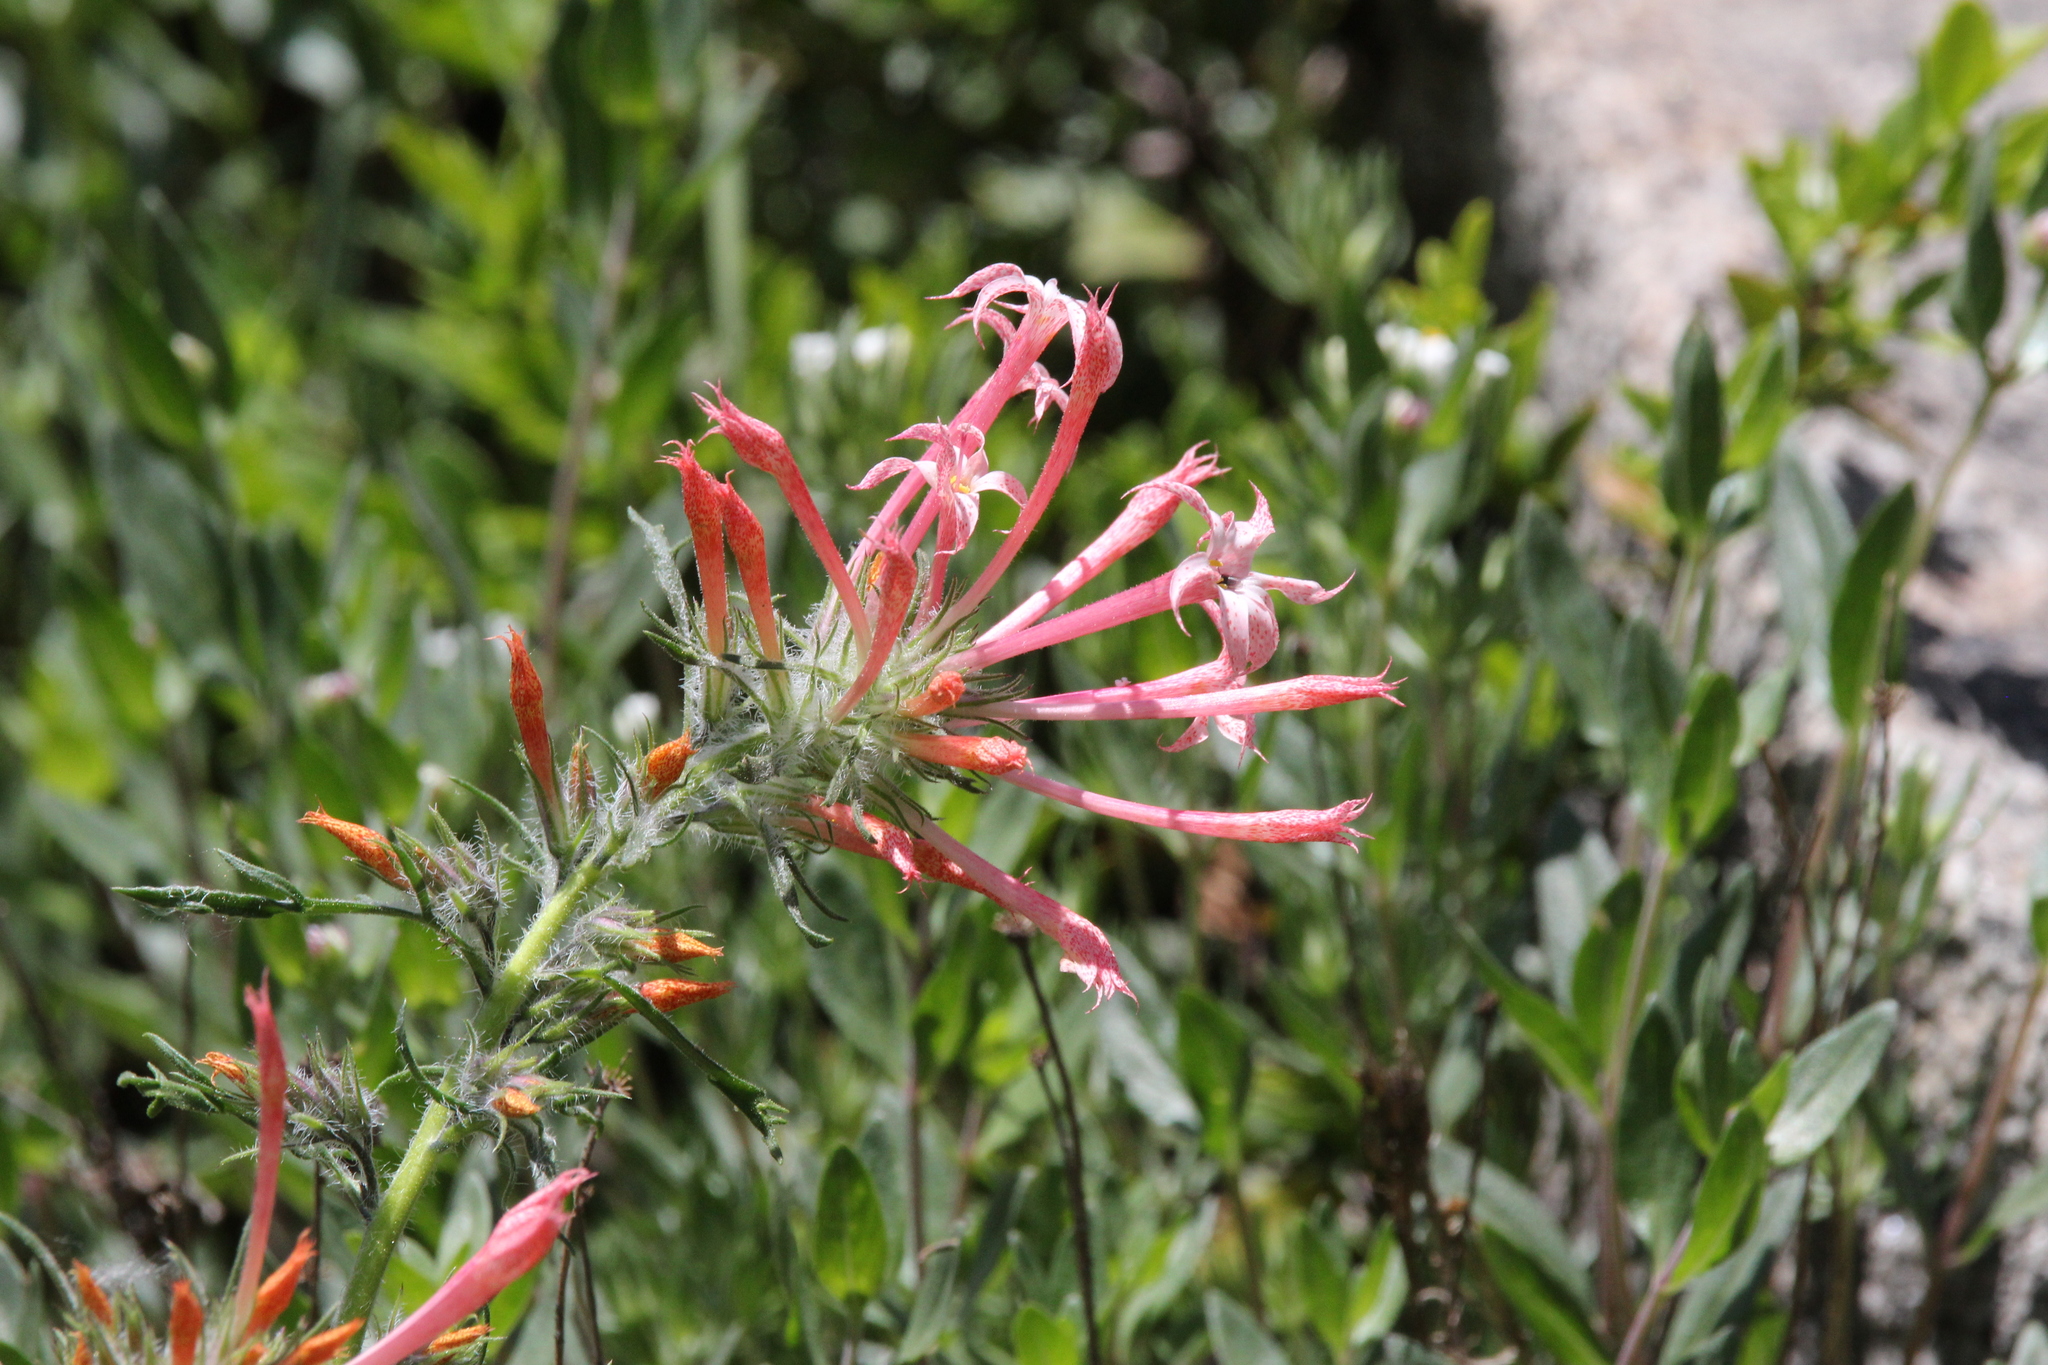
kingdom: Plantae
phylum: Tracheophyta
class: Magnoliopsida
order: Ericales
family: Polemoniaceae
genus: Ipomopsis
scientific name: Ipomopsis aggregata
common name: Scarlet gilia
